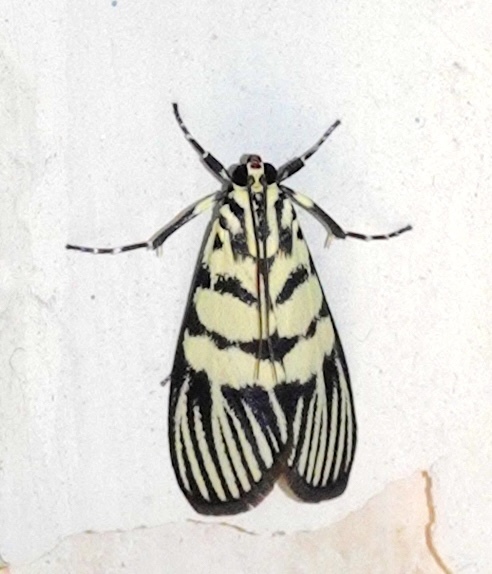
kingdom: Animalia
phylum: Arthropoda
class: Insecta
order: Lepidoptera
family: Crambidae
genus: Heortia
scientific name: Heortia vitessoides
